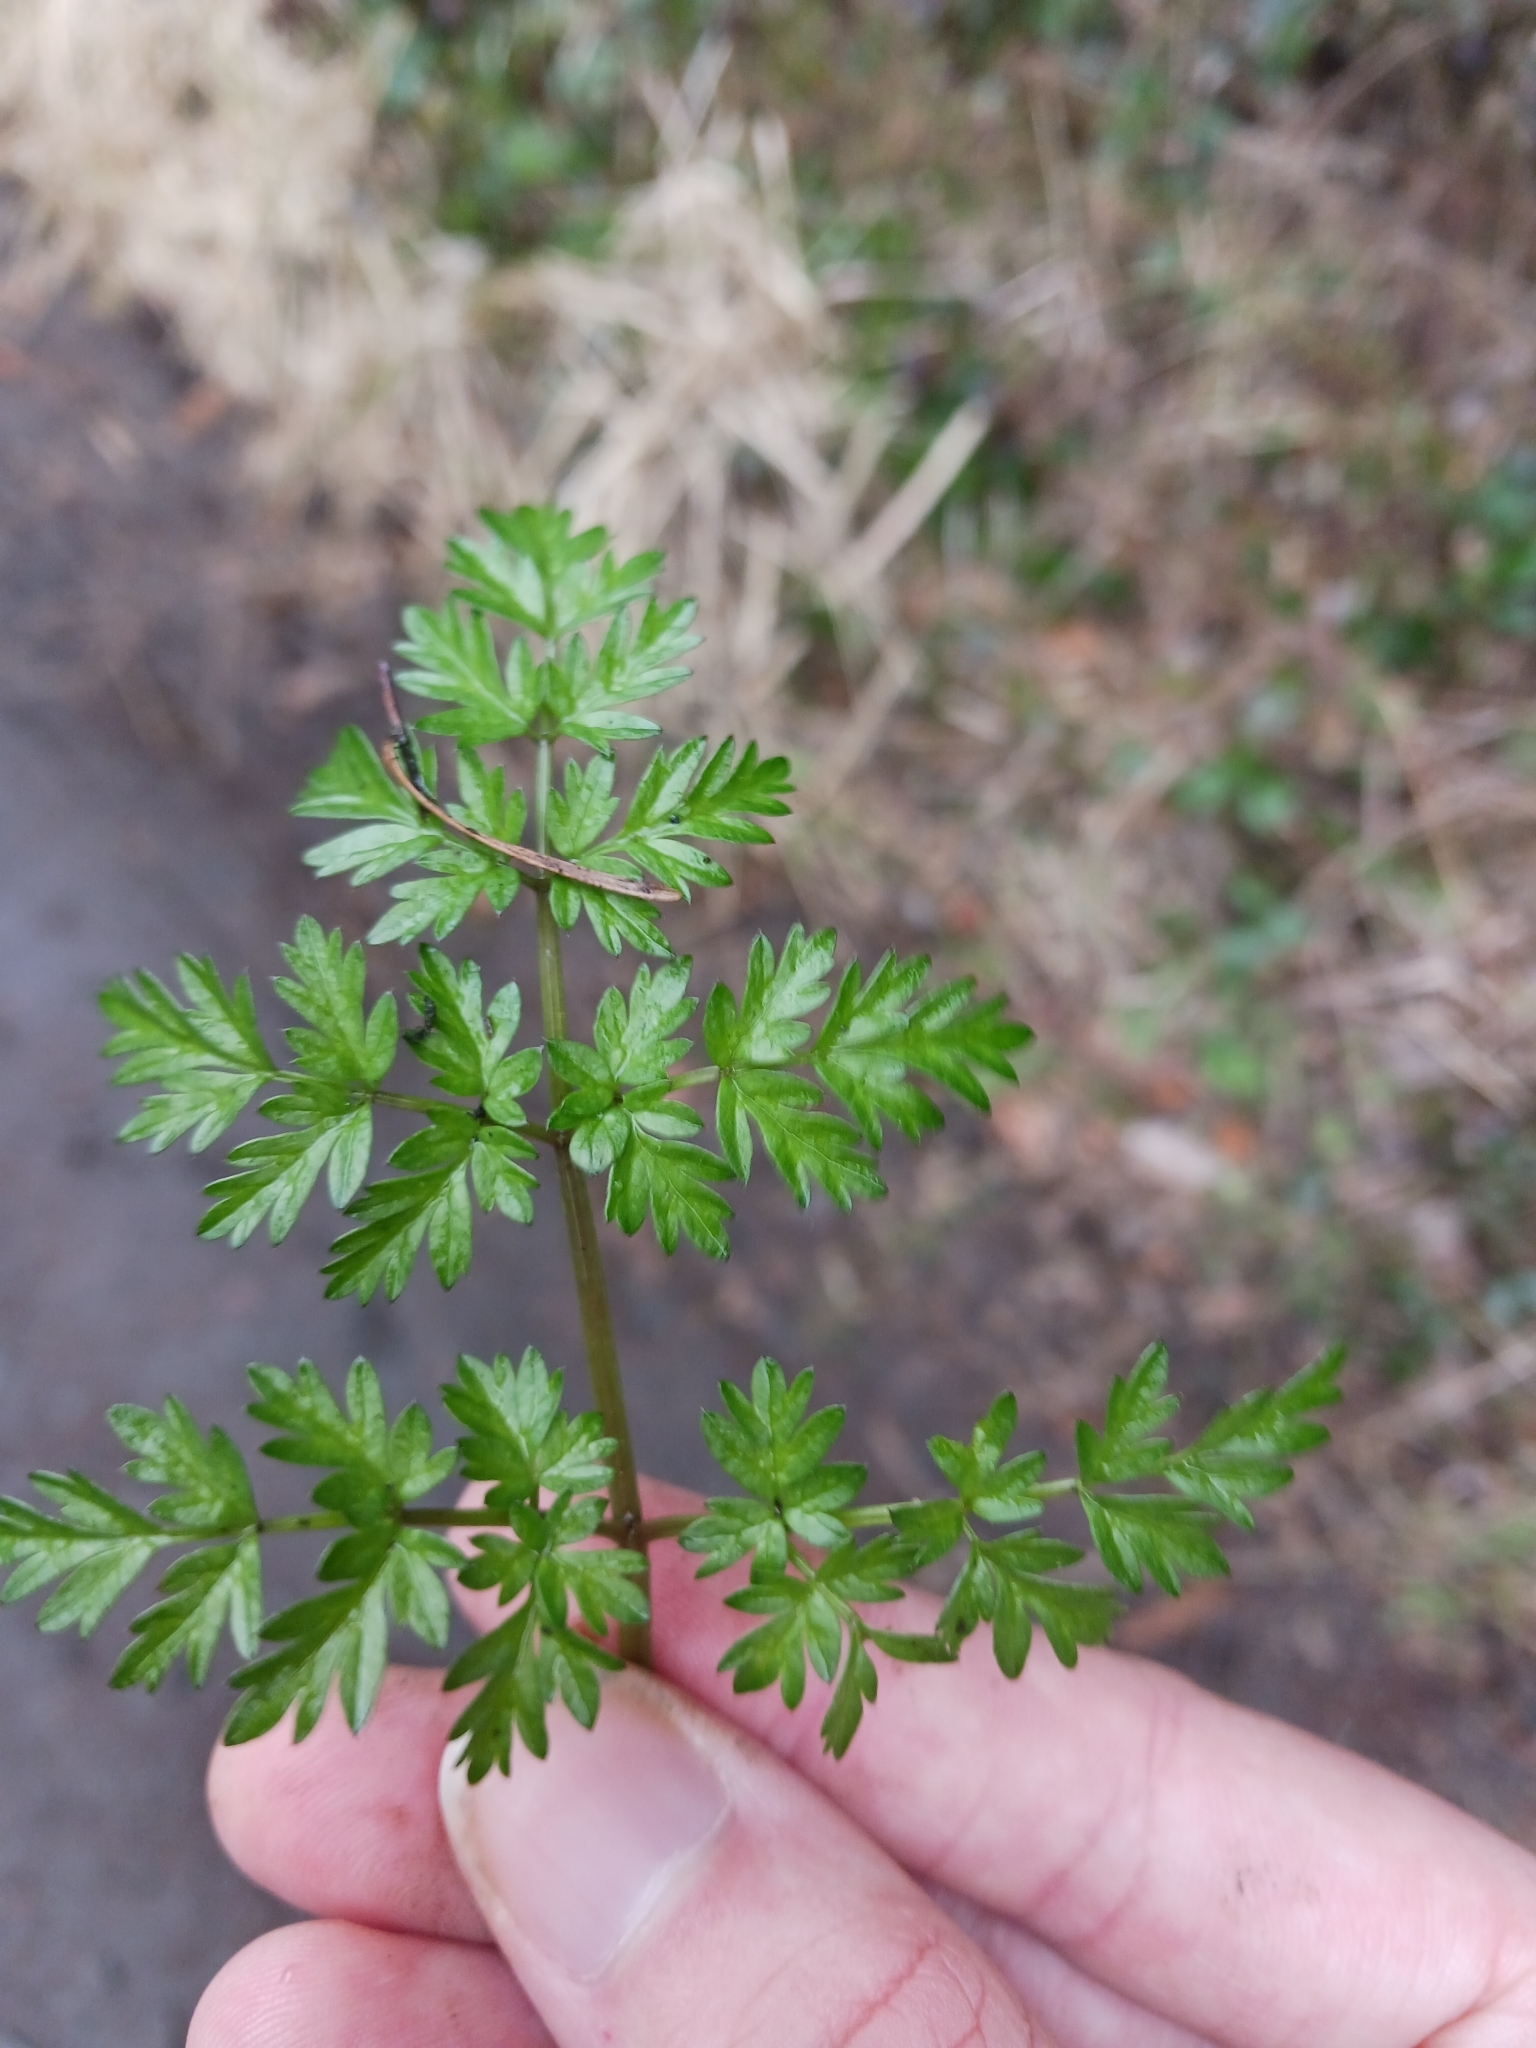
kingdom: Plantae
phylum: Tracheophyta
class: Magnoliopsida
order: Apiales
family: Apiaceae
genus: Anthriscus
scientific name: Anthriscus sylvestris
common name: Cow parsley
